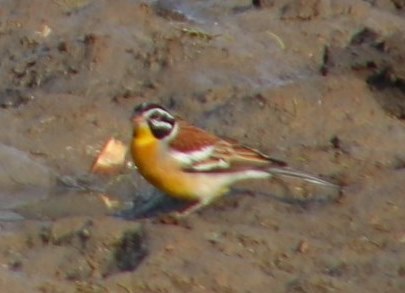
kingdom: Animalia
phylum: Chordata
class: Aves
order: Passeriformes
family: Emberizidae
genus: Emberiza
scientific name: Emberiza flaviventris
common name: Golden-breasted bunting
